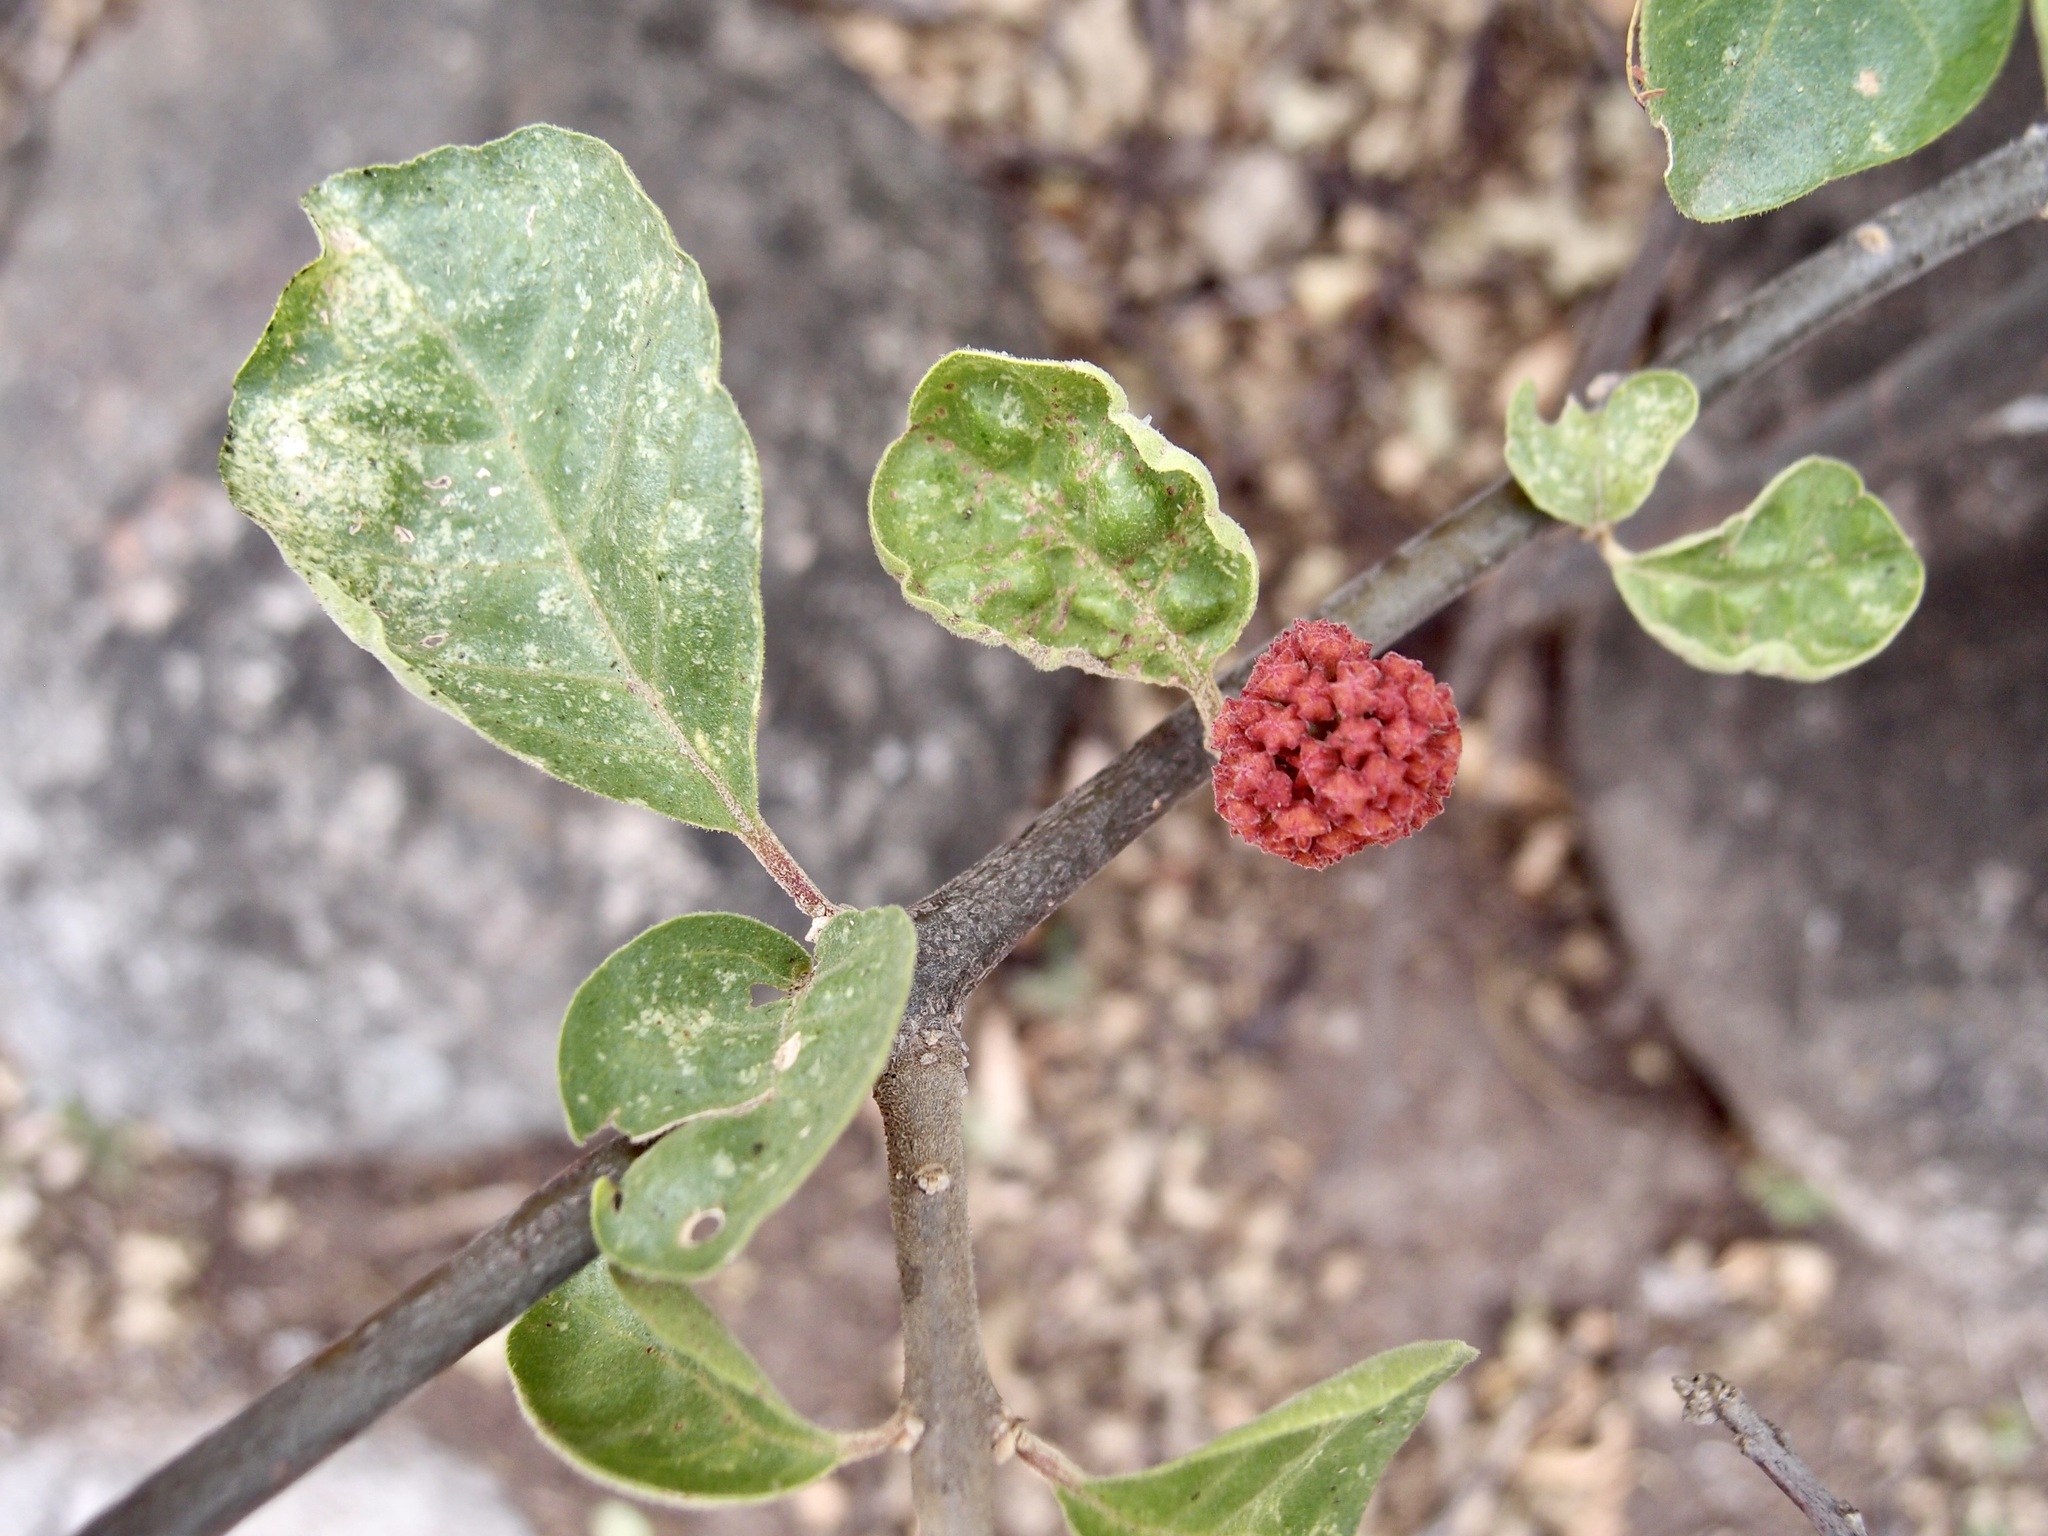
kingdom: Plantae
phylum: Tracheophyta
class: Magnoliopsida
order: Caryophyllales
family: Nyctaginaceae
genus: Pisonia
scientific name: Pisonia capitata
